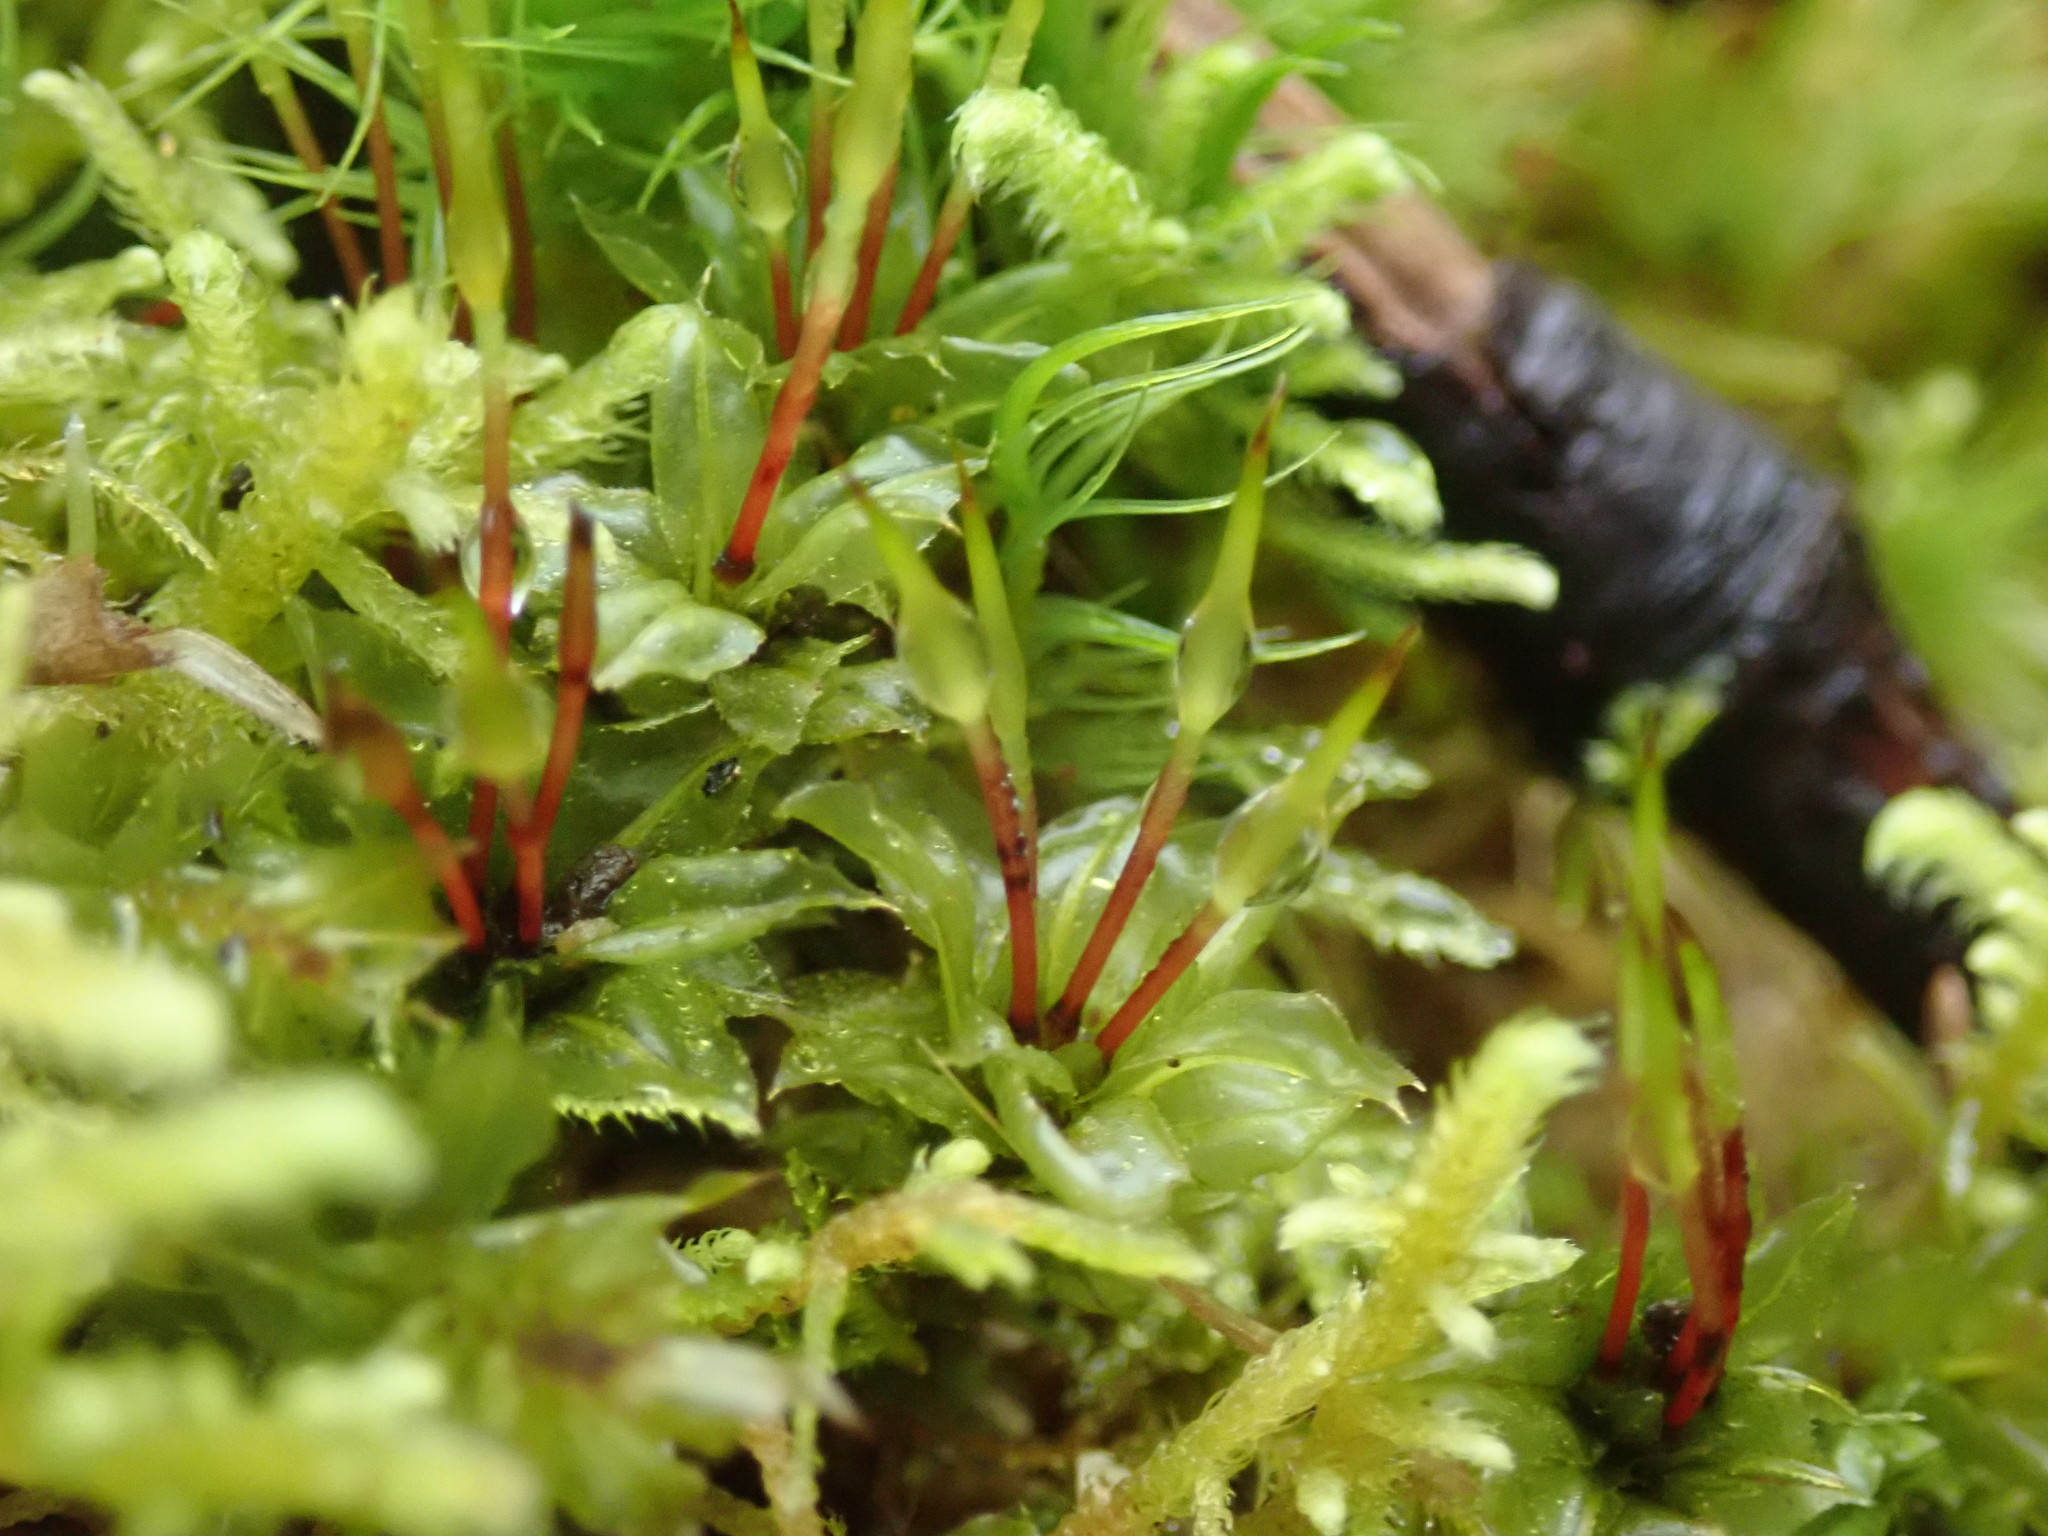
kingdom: Plantae
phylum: Bryophyta
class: Bryopsida
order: Bryales
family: Mniaceae
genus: Plagiomnium
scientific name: Plagiomnium venustum
